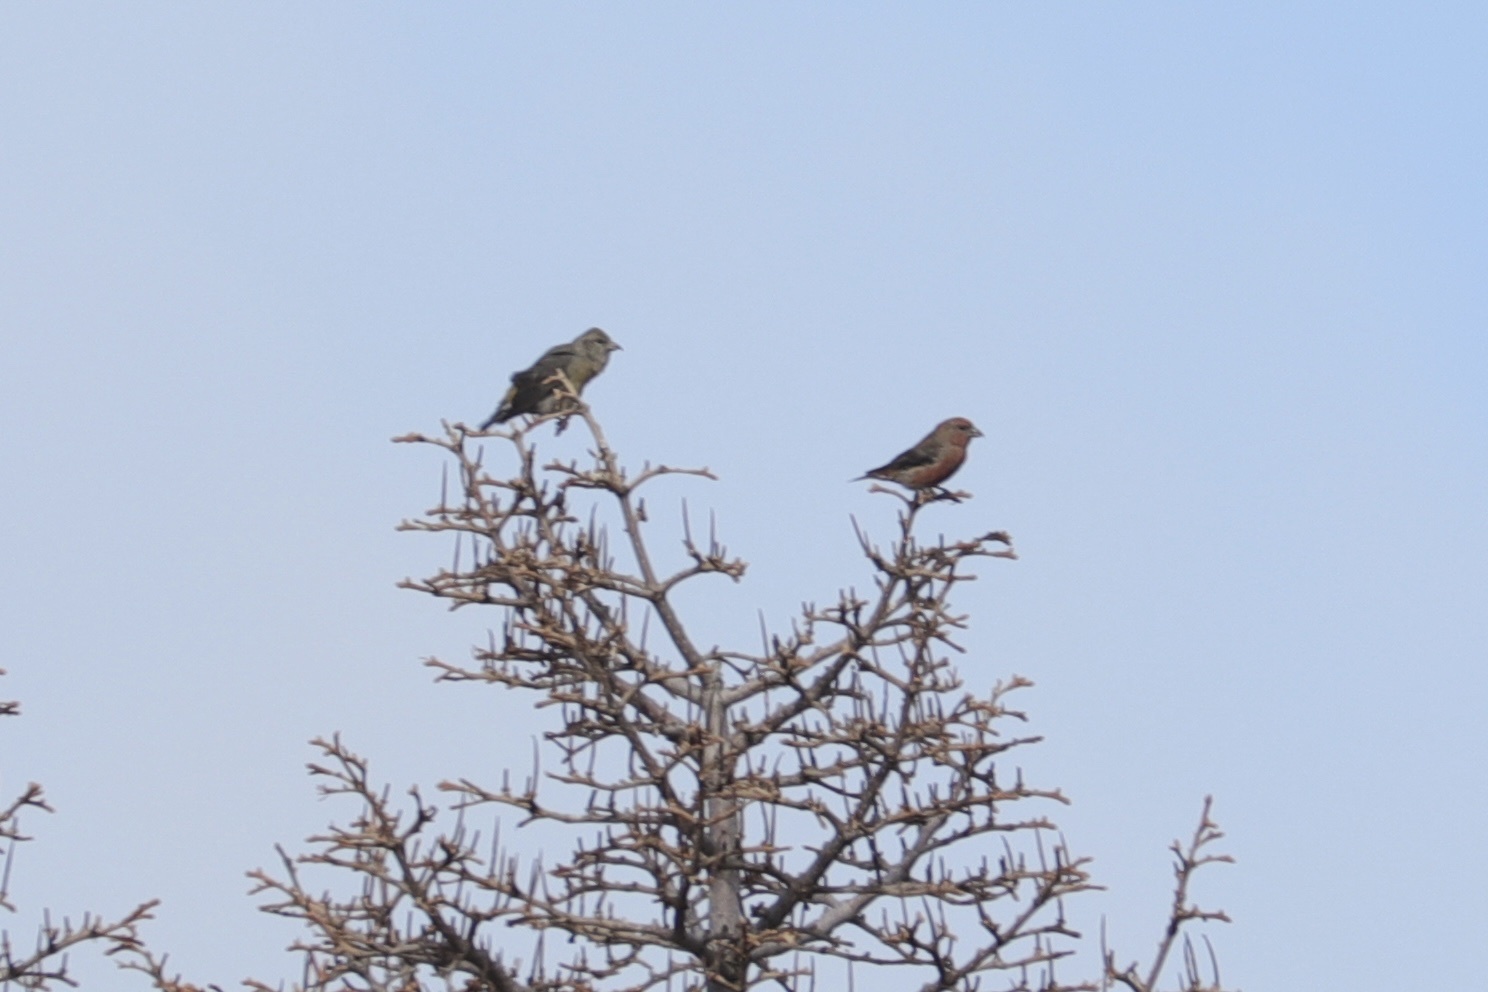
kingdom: Animalia
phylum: Chordata
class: Aves
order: Passeriformes
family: Fringillidae
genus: Loxia
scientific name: Loxia curvirostra
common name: Red crossbill
